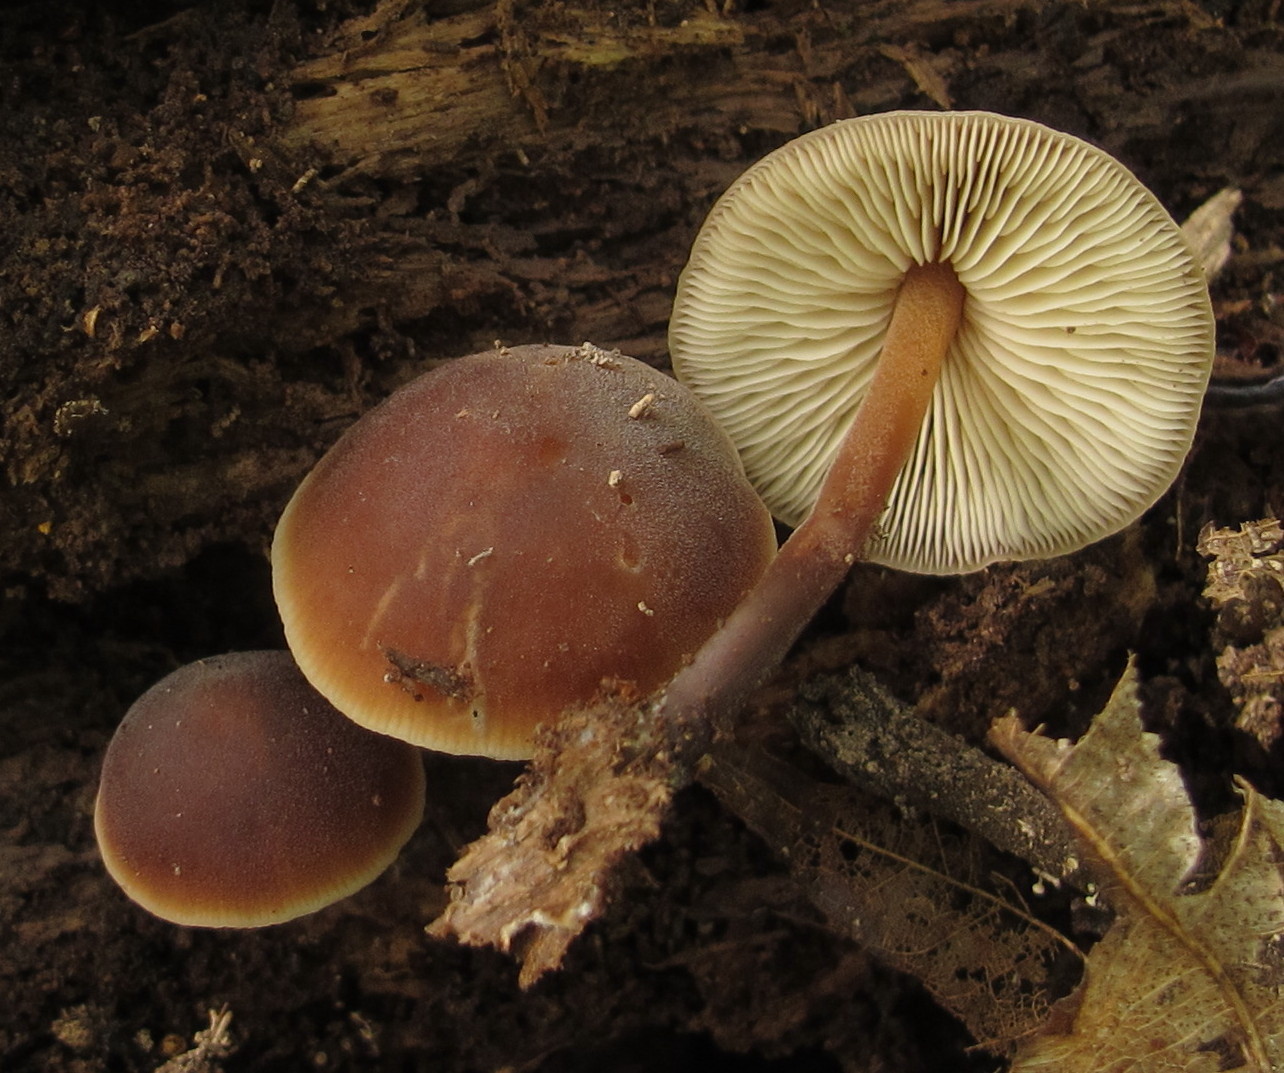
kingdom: Fungi
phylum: Basidiomycota
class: Agaricomycetes
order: Agaricales
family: Macrocystidiaceae
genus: Macrocystidia
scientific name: Macrocystidia cucumis
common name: Cucumber cap
